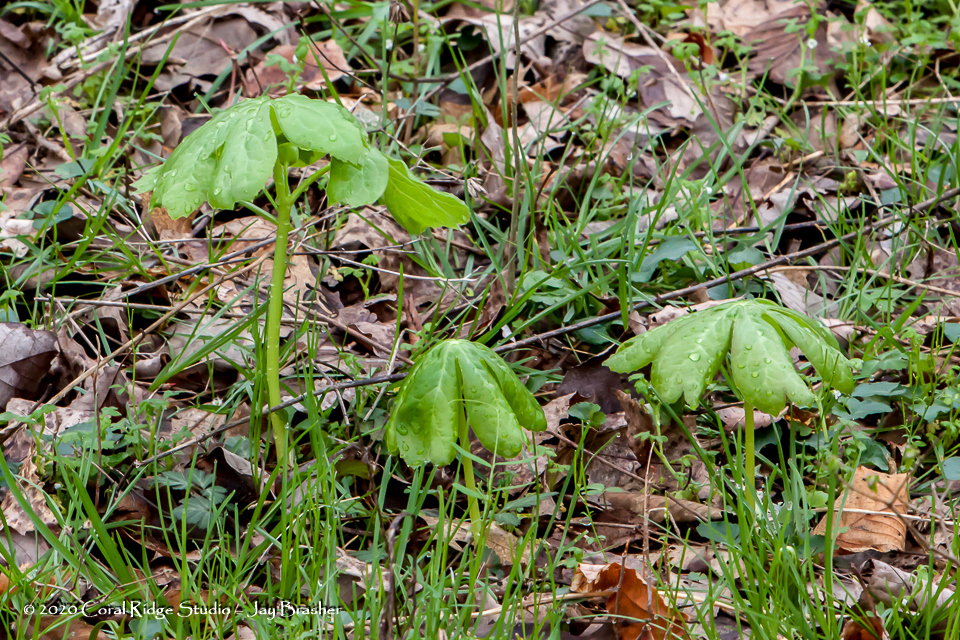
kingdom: Plantae
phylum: Tracheophyta
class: Magnoliopsida
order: Ranunculales
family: Berberidaceae
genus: Podophyllum
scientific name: Podophyllum peltatum
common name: Wild mandrake
